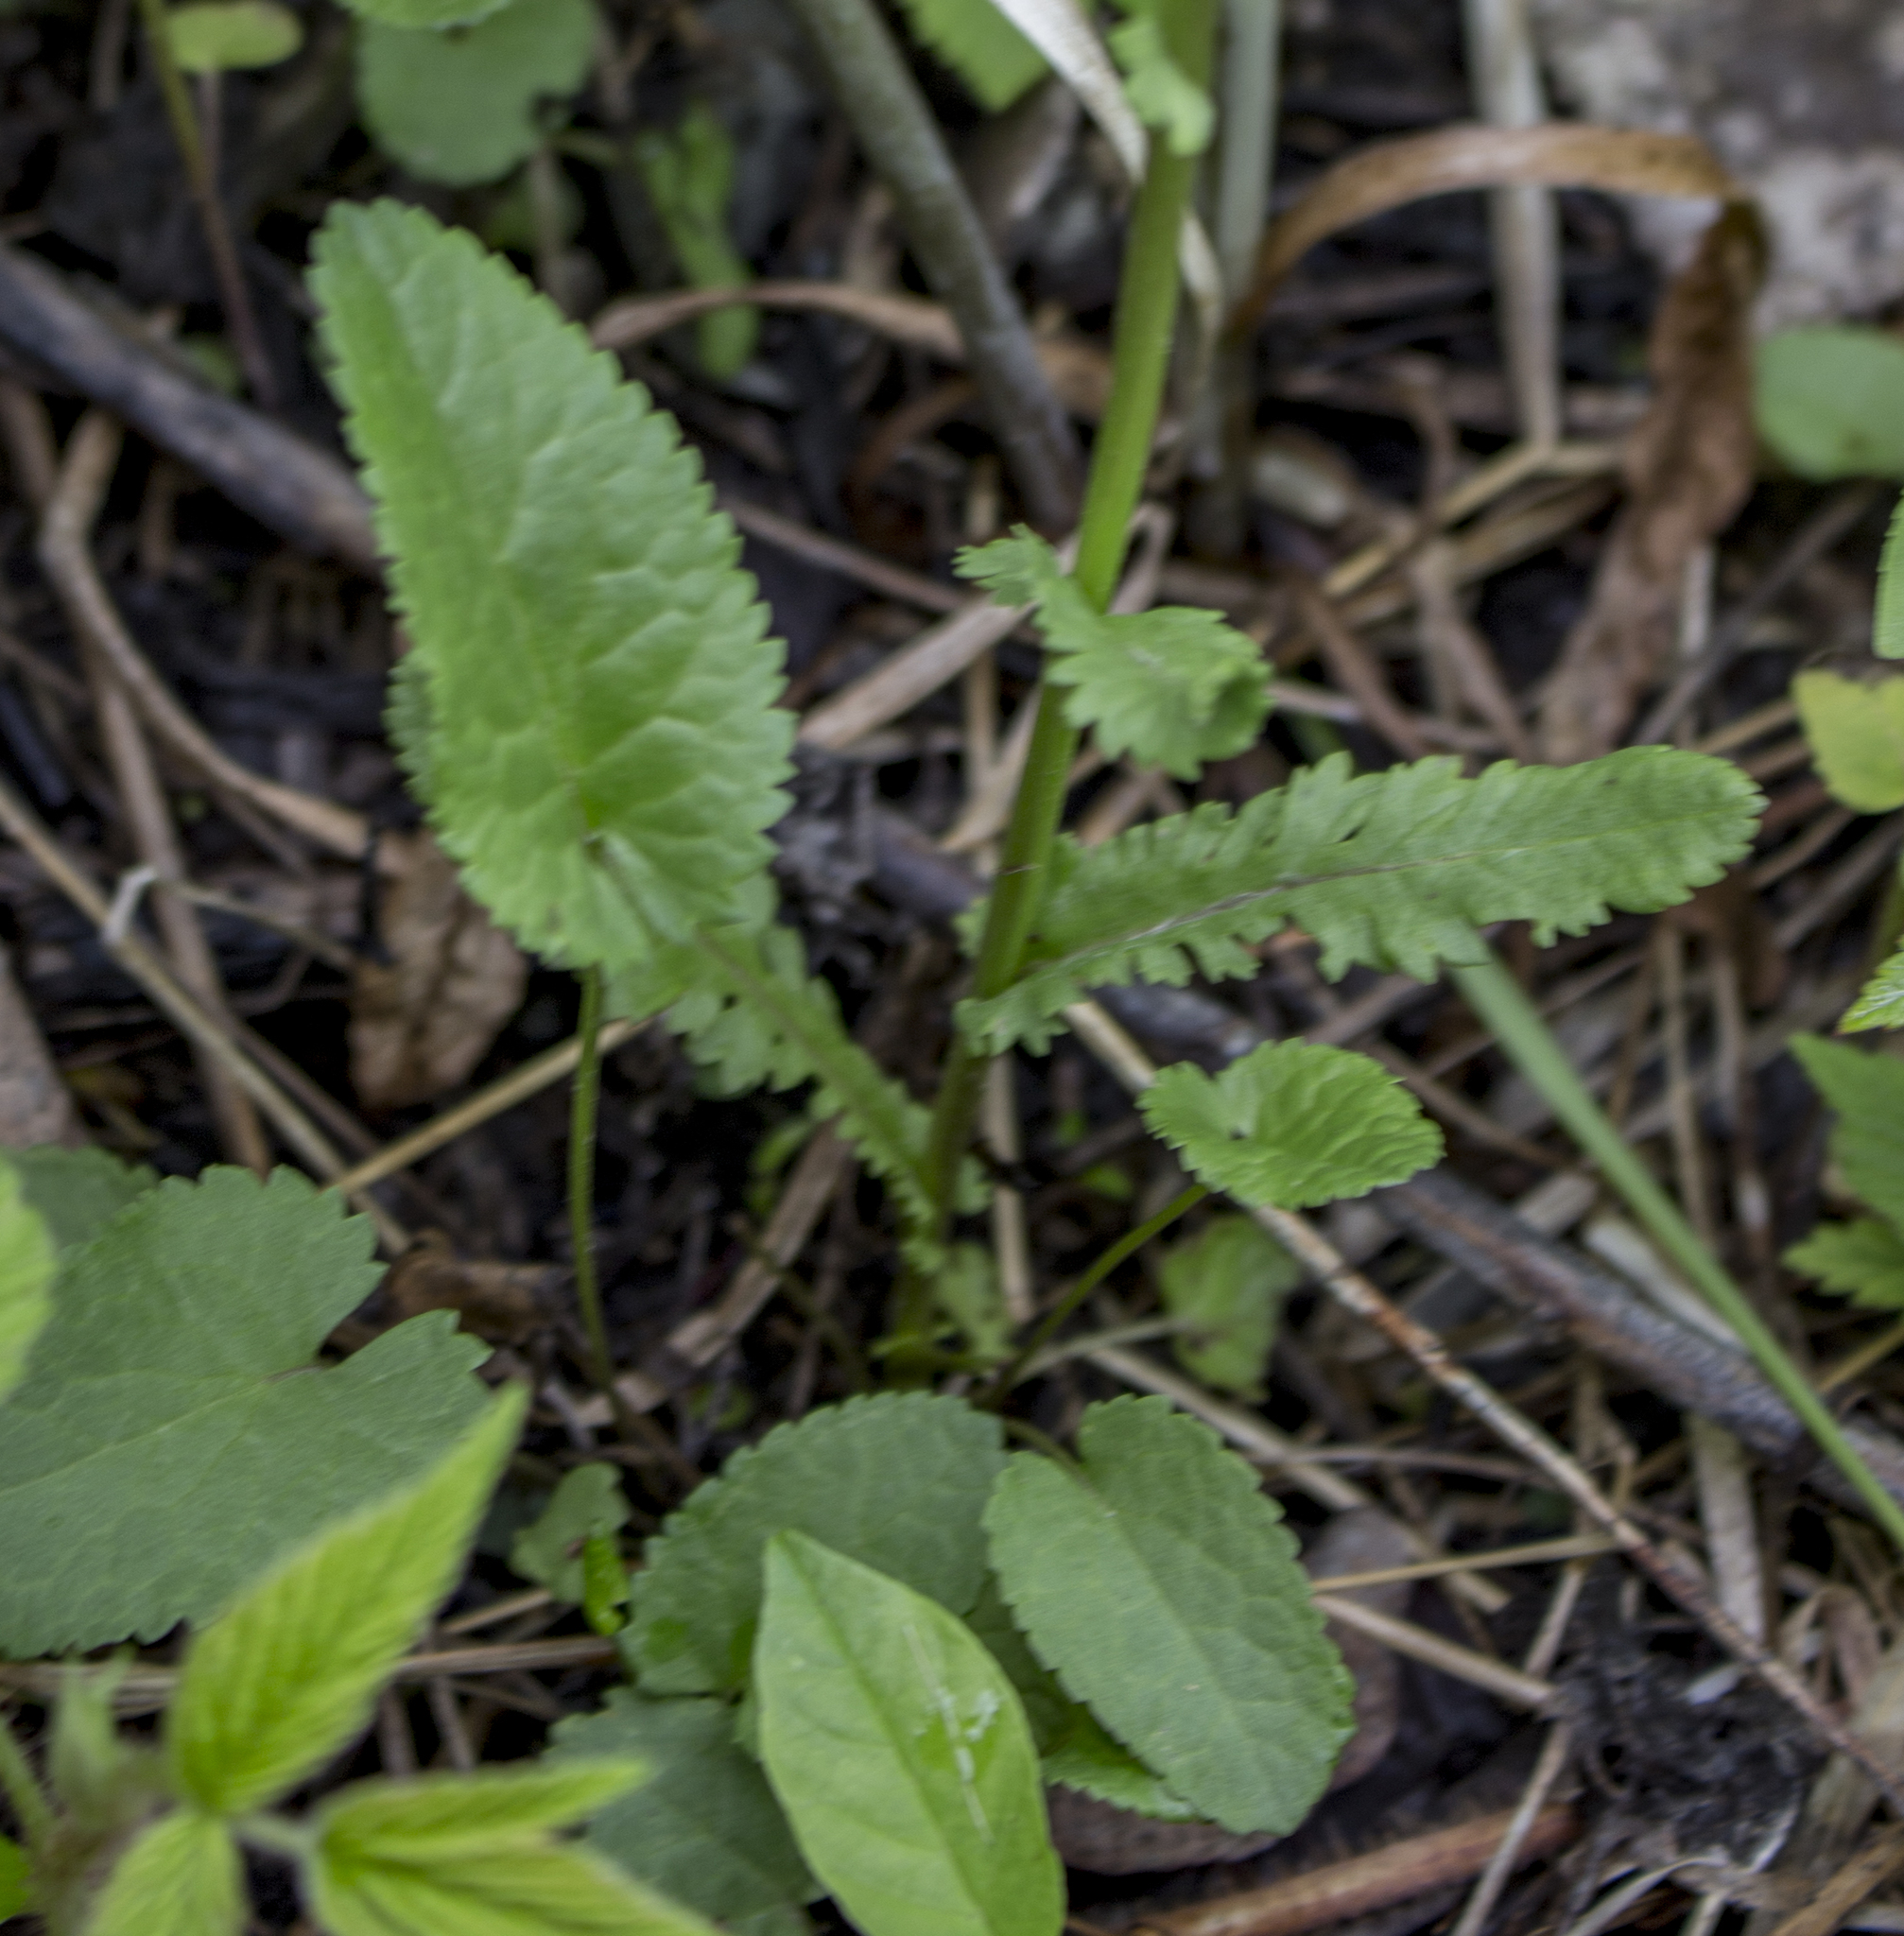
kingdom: Plantae
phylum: Tracheophyta
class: Magnoliopsida
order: Asterales
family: Asteraceae
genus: Packera
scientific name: Packera aurea
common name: Golden groundsel
